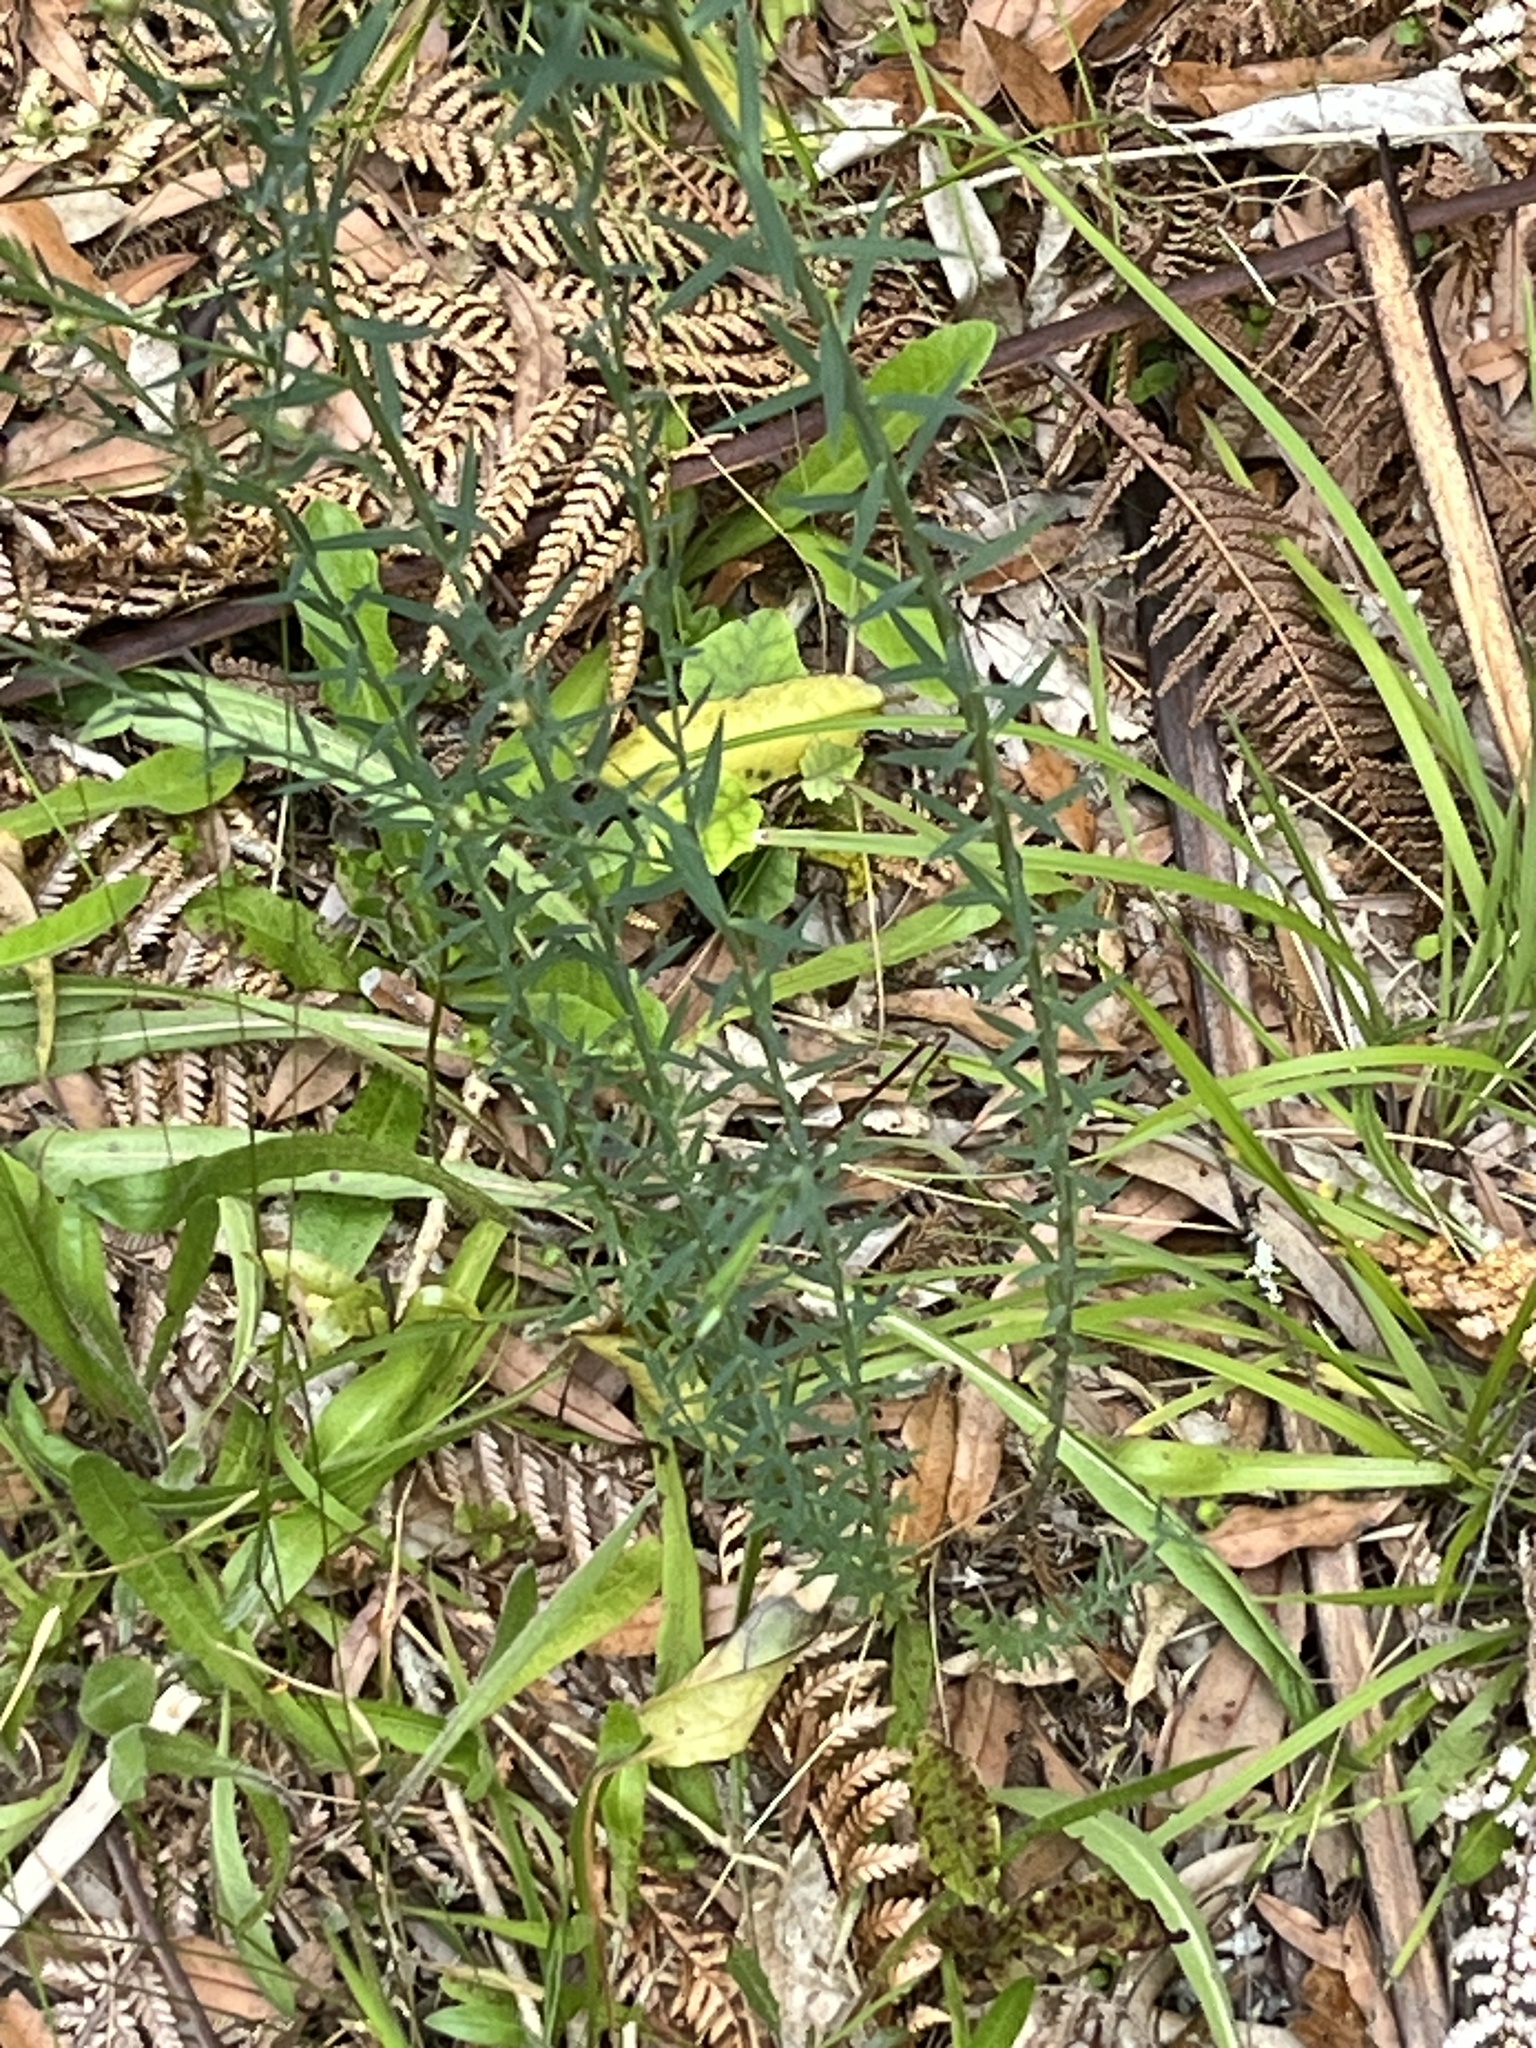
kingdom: Plantae
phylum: Tracheophyta
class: Magnoliopsida
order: Malpighiales
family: Linaceae
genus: Linum
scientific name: Linum bienne
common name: Pale flax
